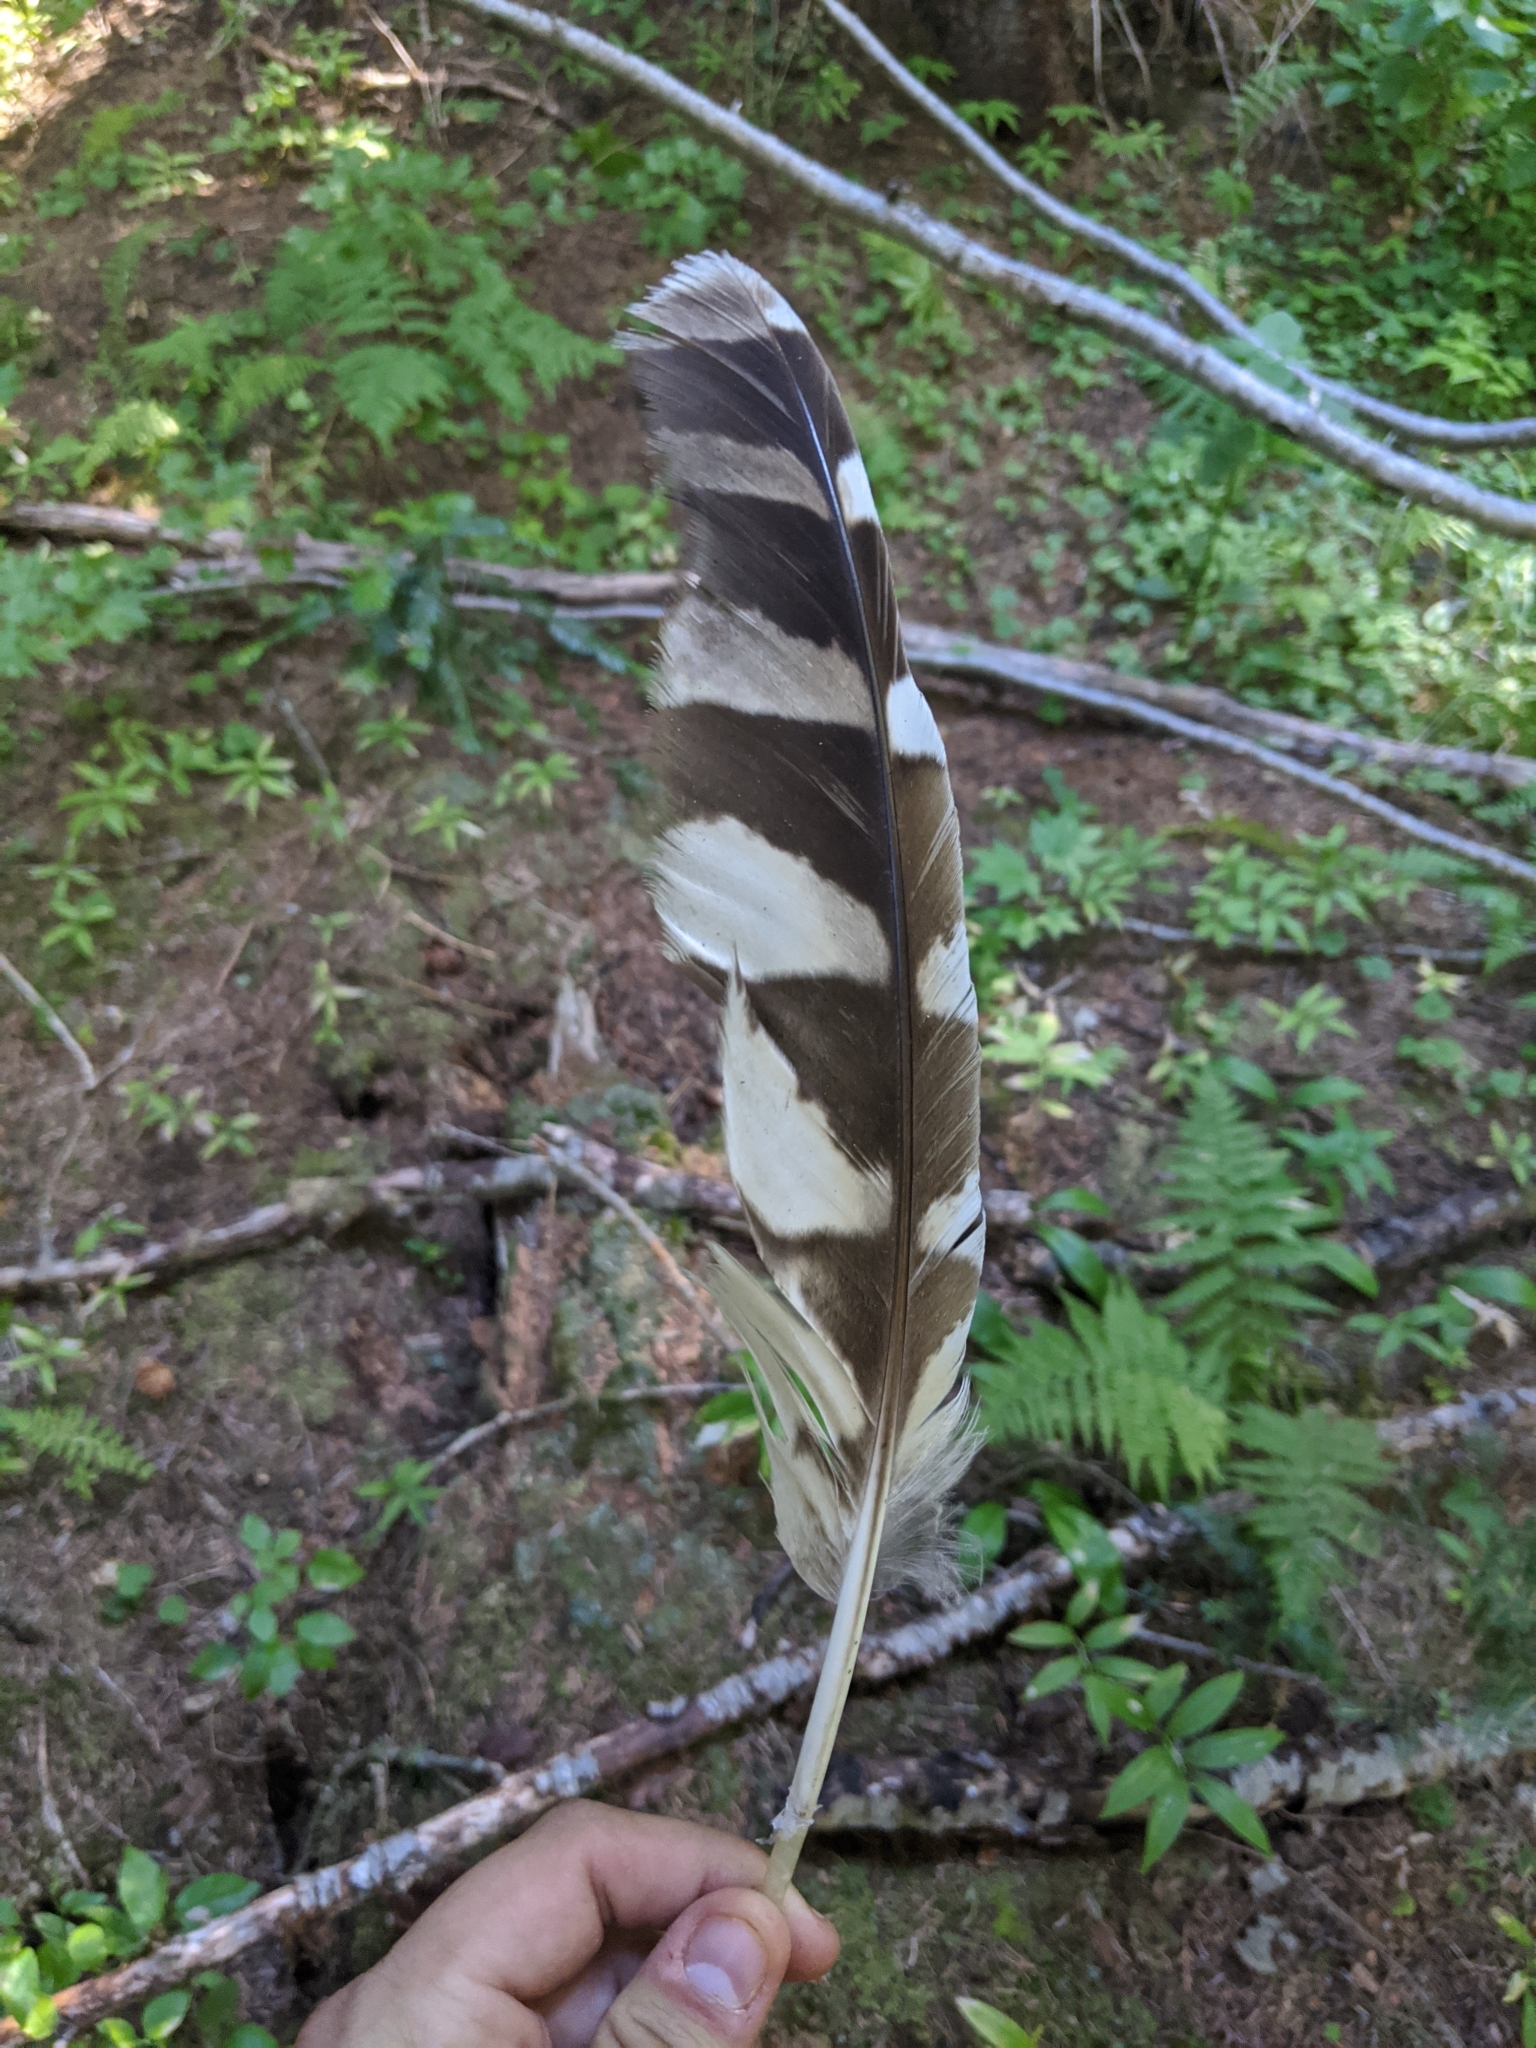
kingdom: Animalia
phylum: Chordata
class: Aves
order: Strigiformes
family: Strigidae
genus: Strix
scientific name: Strix varia
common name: Barred owl
